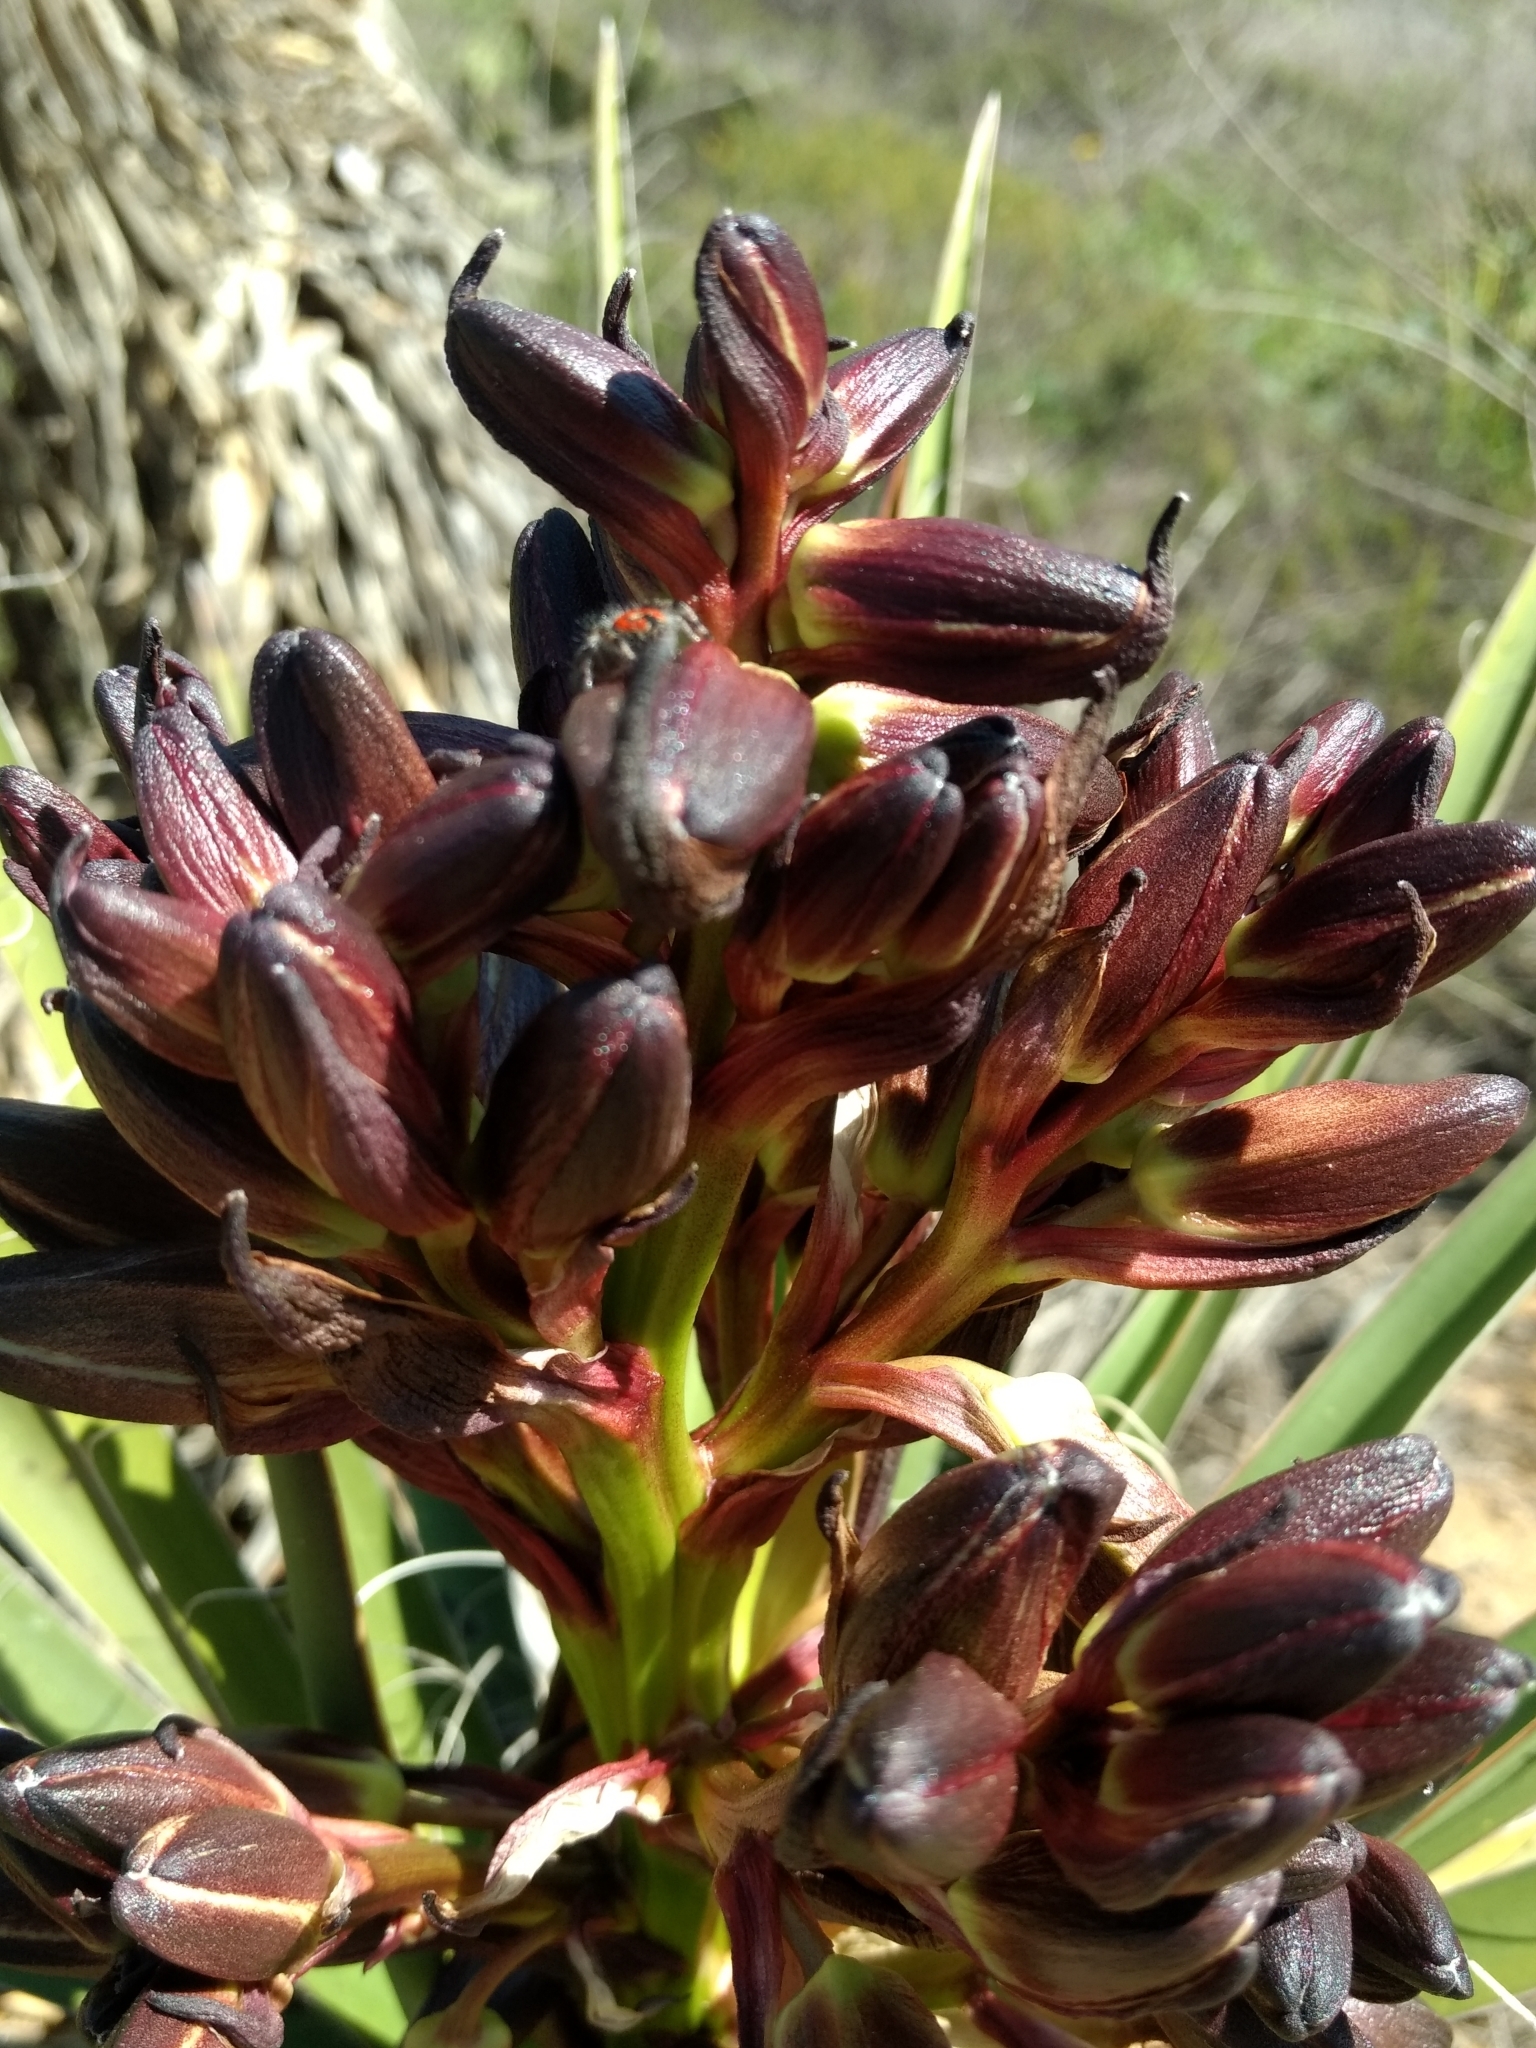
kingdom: Plantae
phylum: Tracheophyta
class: Liliopsida
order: Asparagales
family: Asparagaceae
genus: Yucca
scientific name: Yucca schidigera
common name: Mojave yucca
